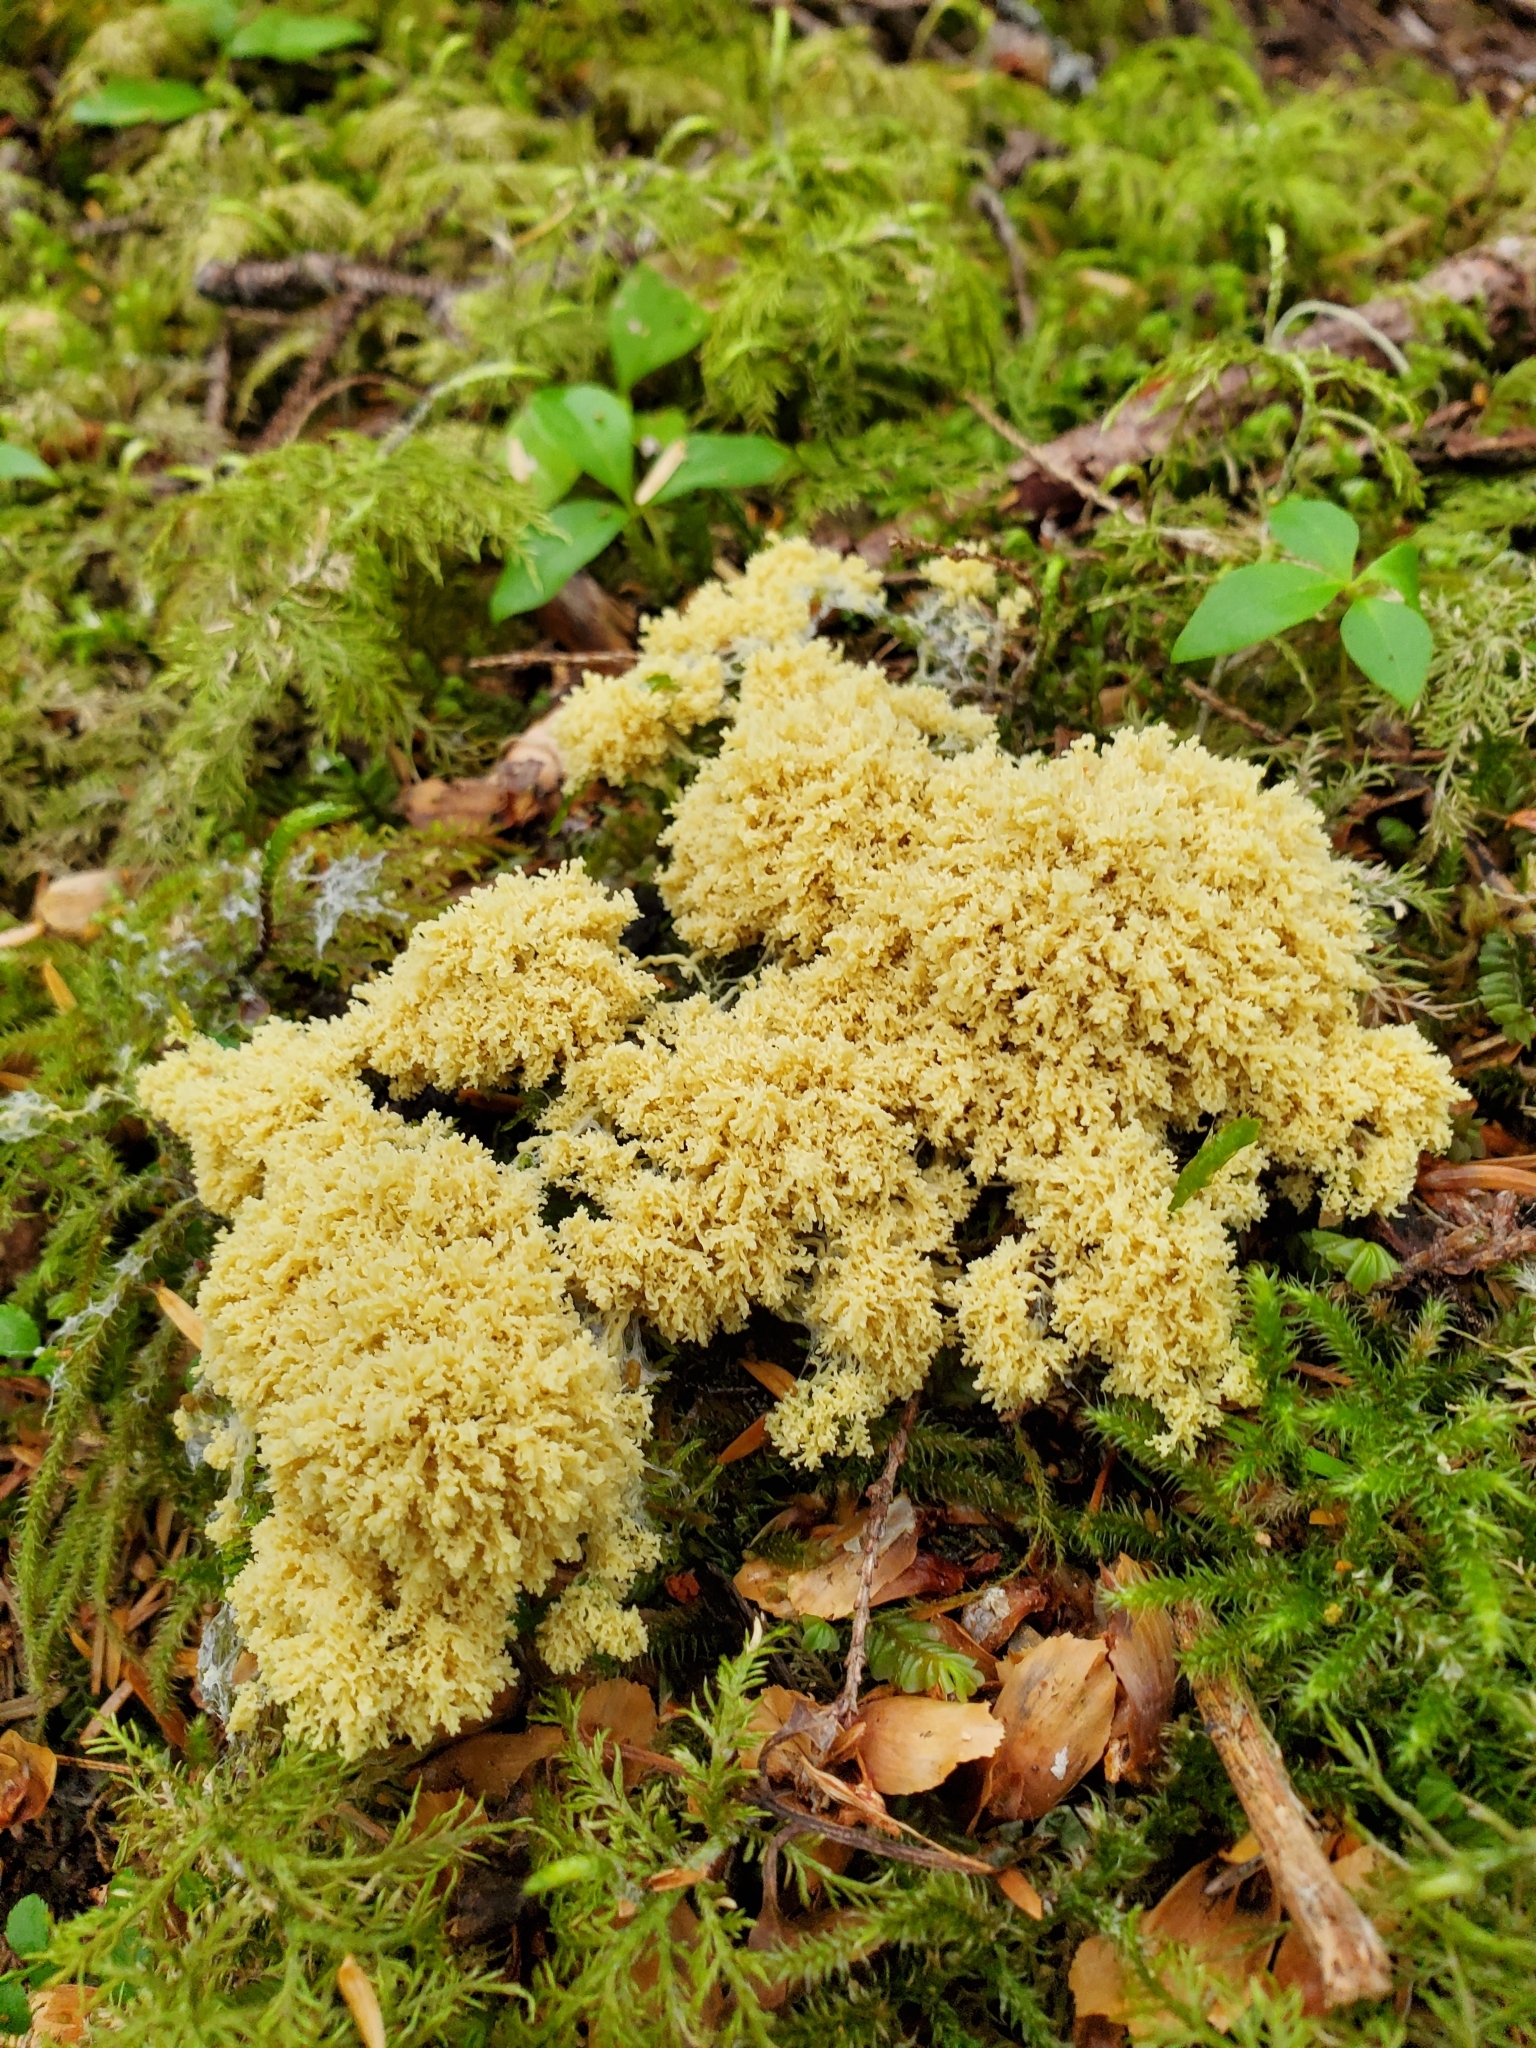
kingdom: Protozoa
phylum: Mycetozoa
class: Myxomycetes
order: Physarales
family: Physaraceae
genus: Fuligo
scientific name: Fuligo septica
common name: Dog vomit slime mold
